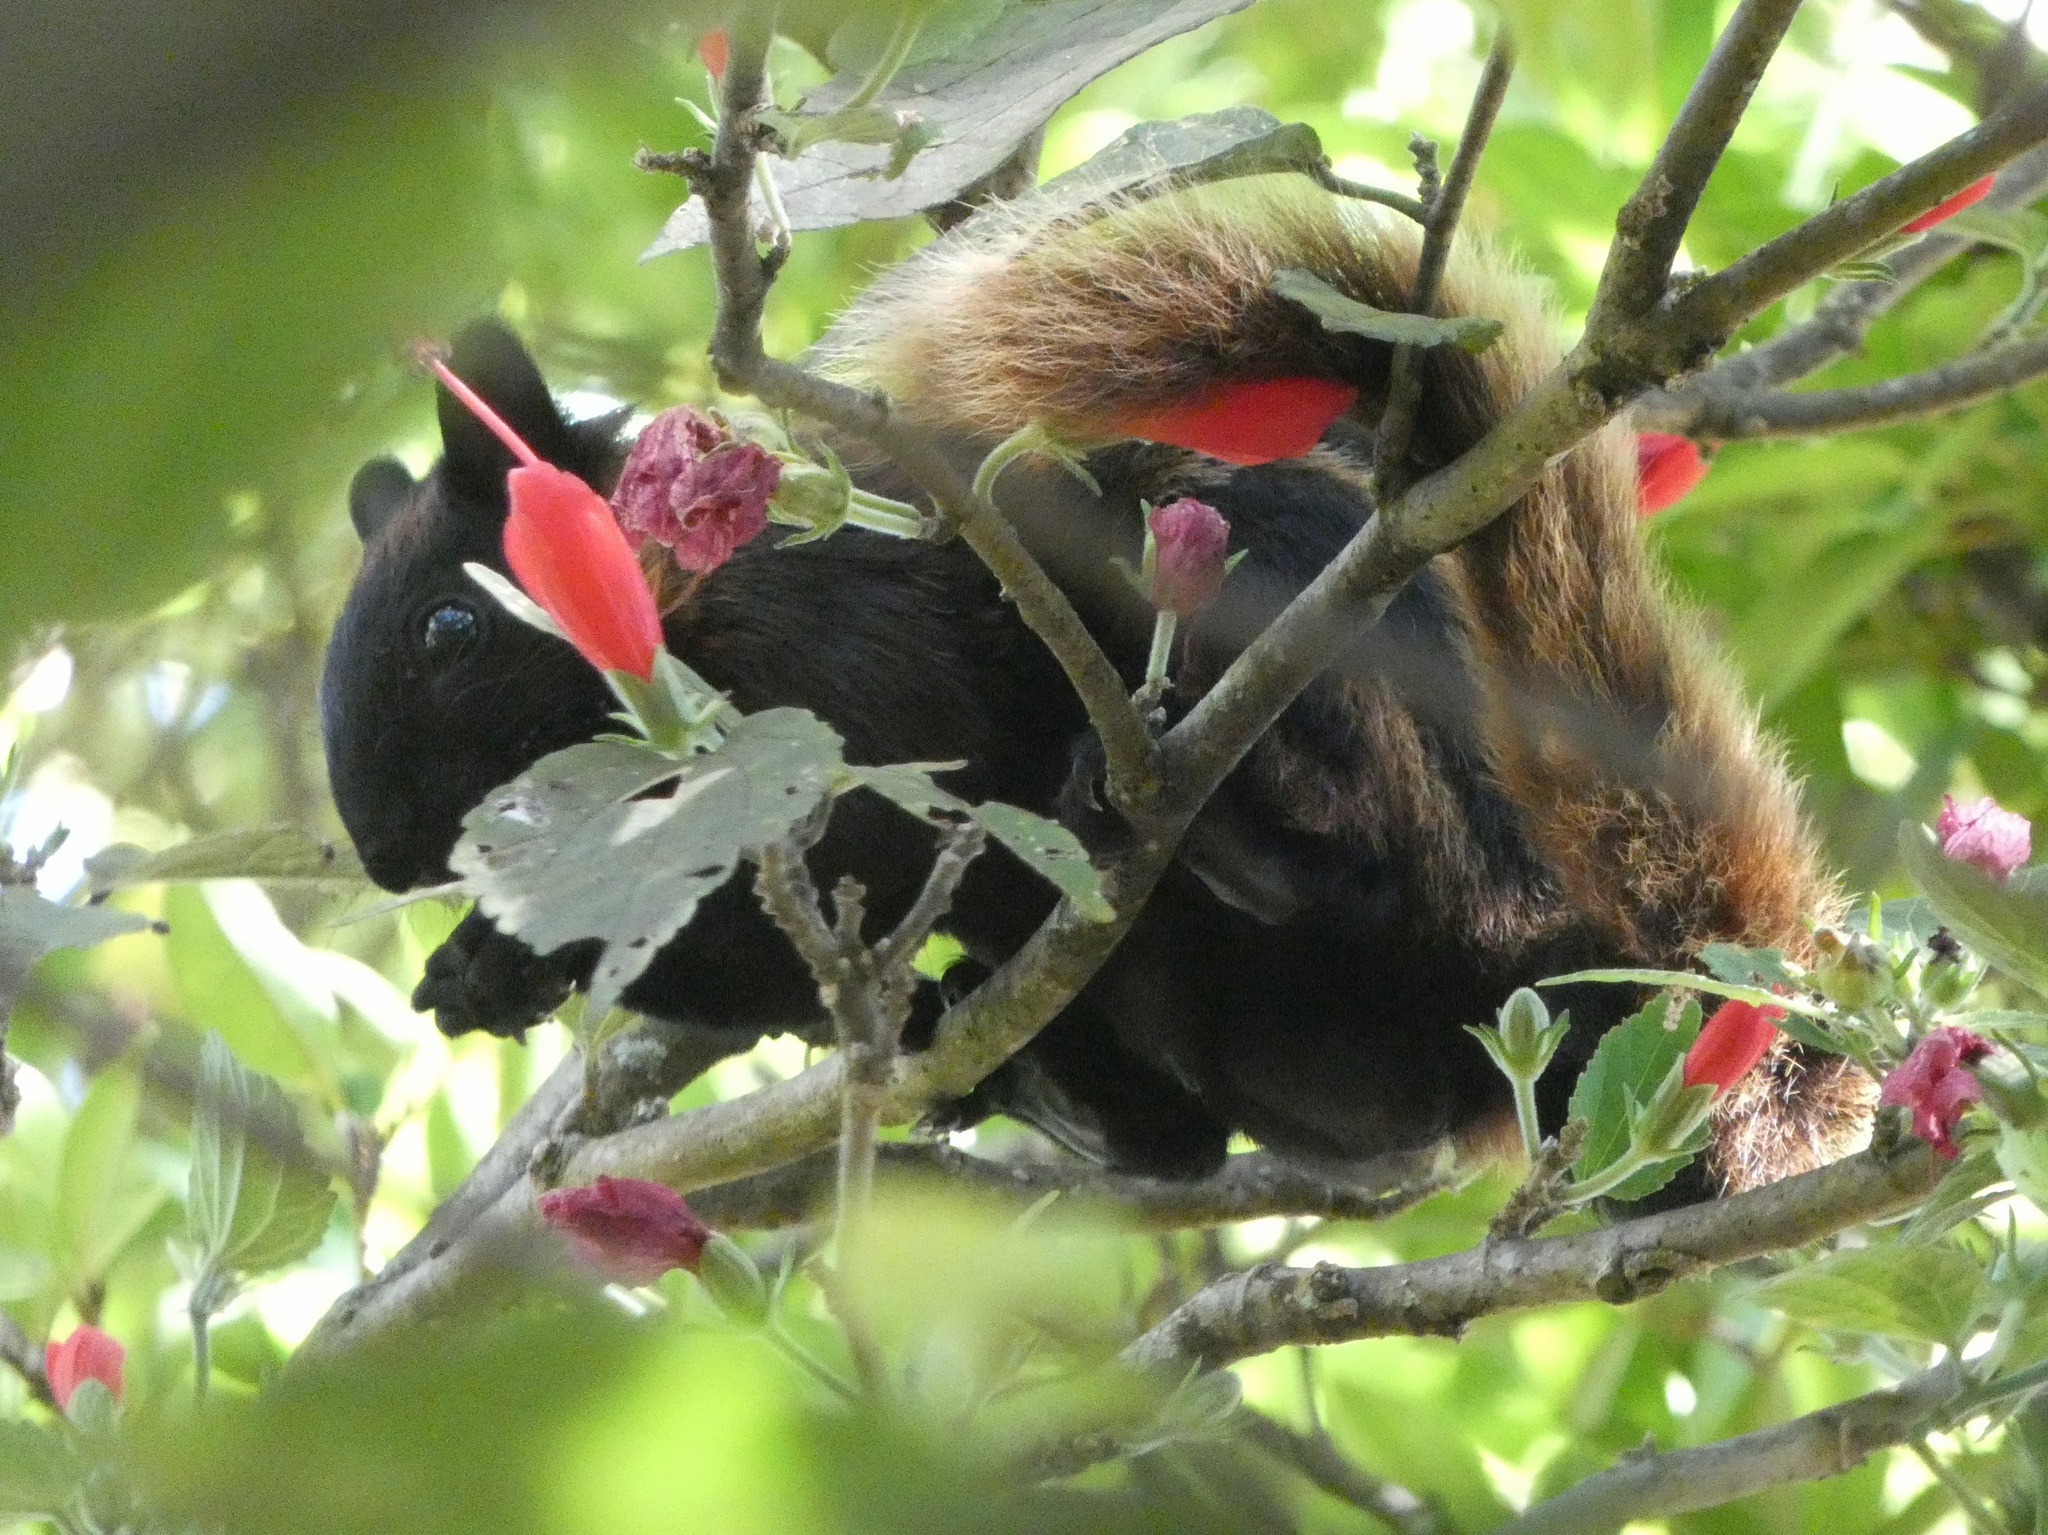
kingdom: Animalia
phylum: Chordata
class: Mammalia
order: Rodentia
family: Sciuridae
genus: Sciurus
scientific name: Sciurus variegatoides
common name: Variegated squirrel
